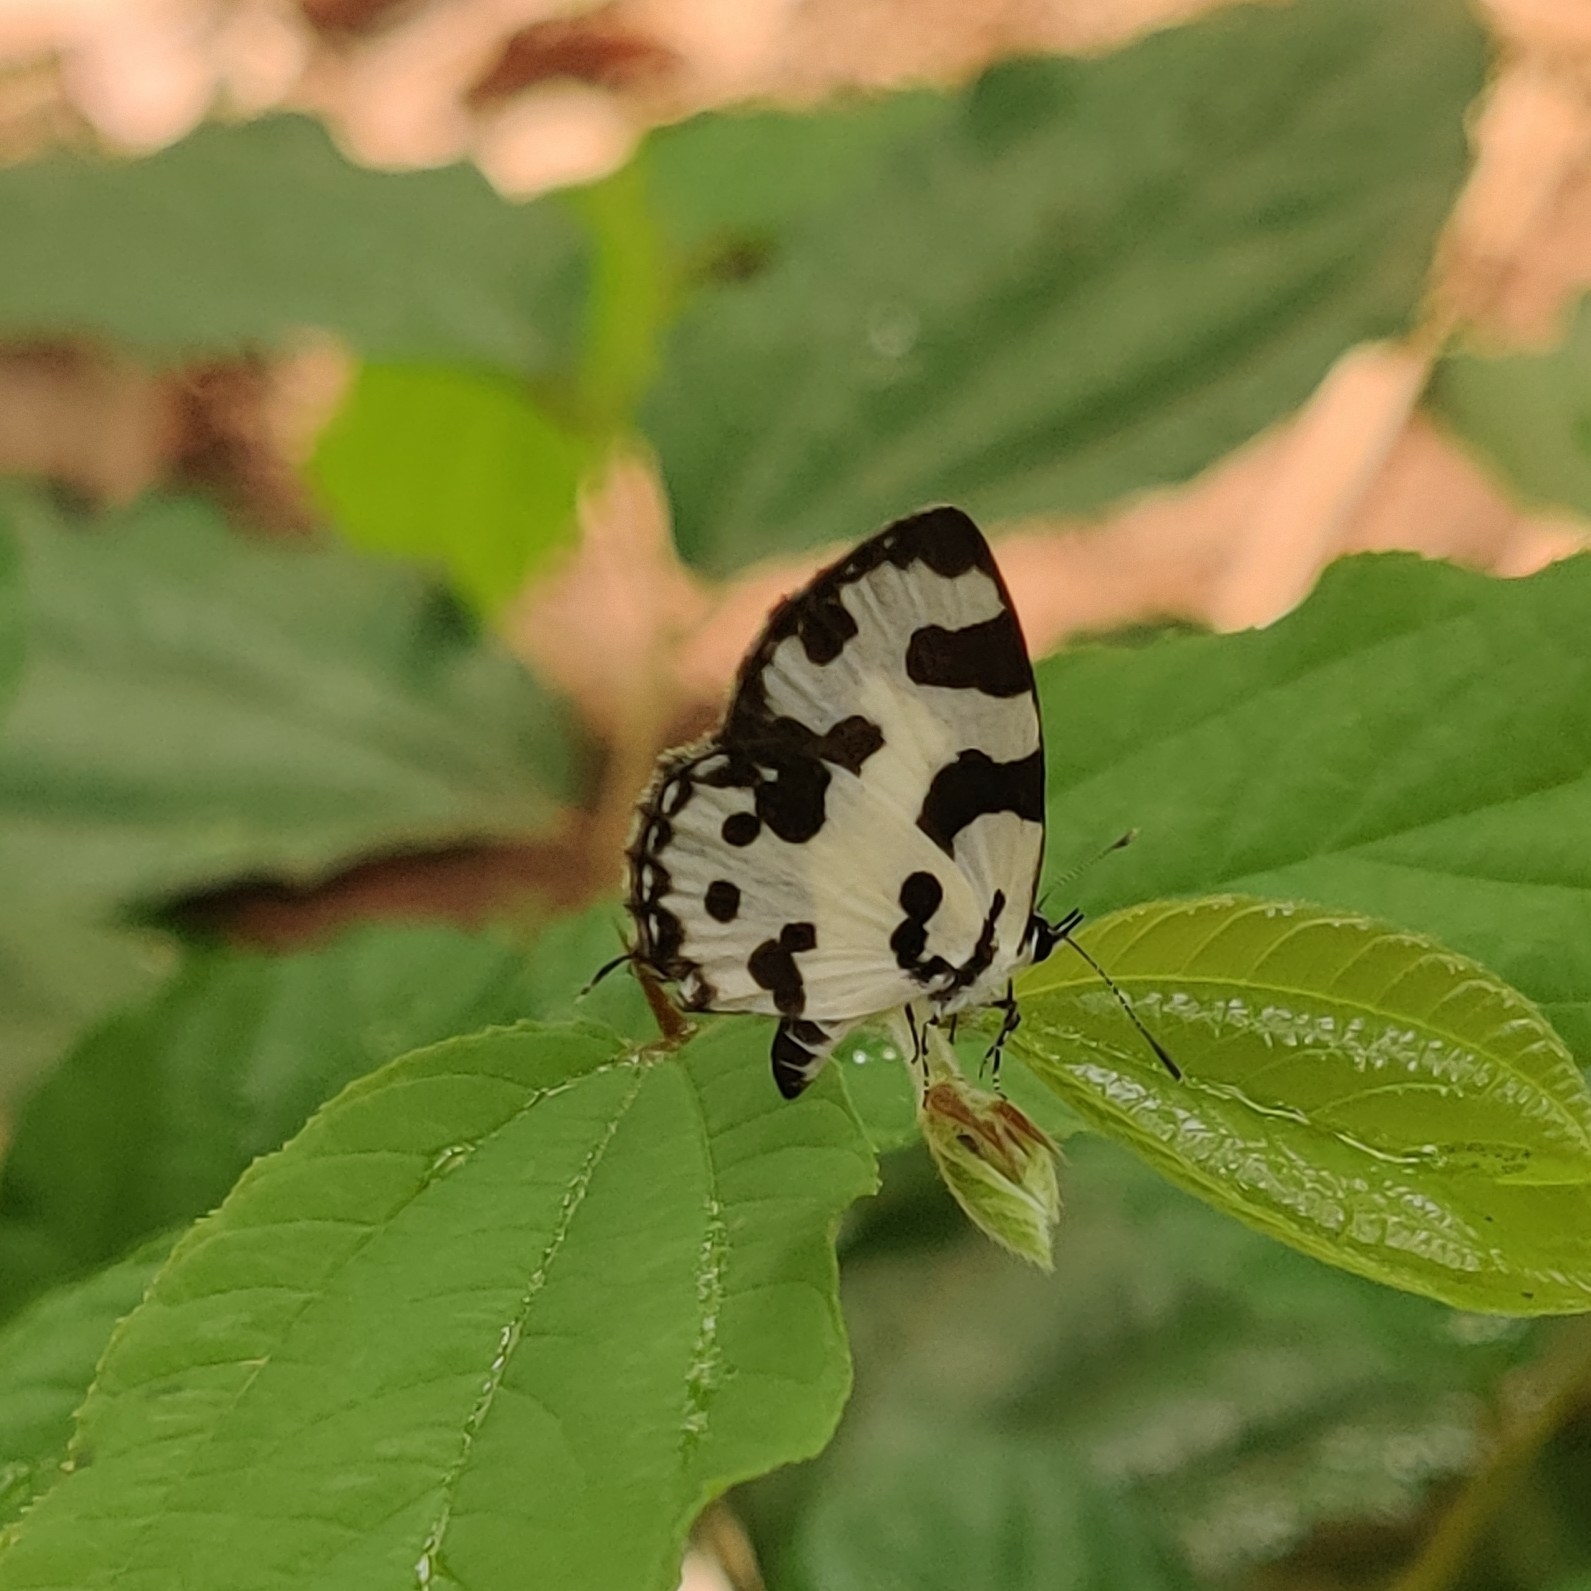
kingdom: Animalia
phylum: Arthropoda
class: Insecta
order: Lepidoptera
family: Lycaenidae
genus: Caleta
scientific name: Caleta decidia
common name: Angled pierrot
